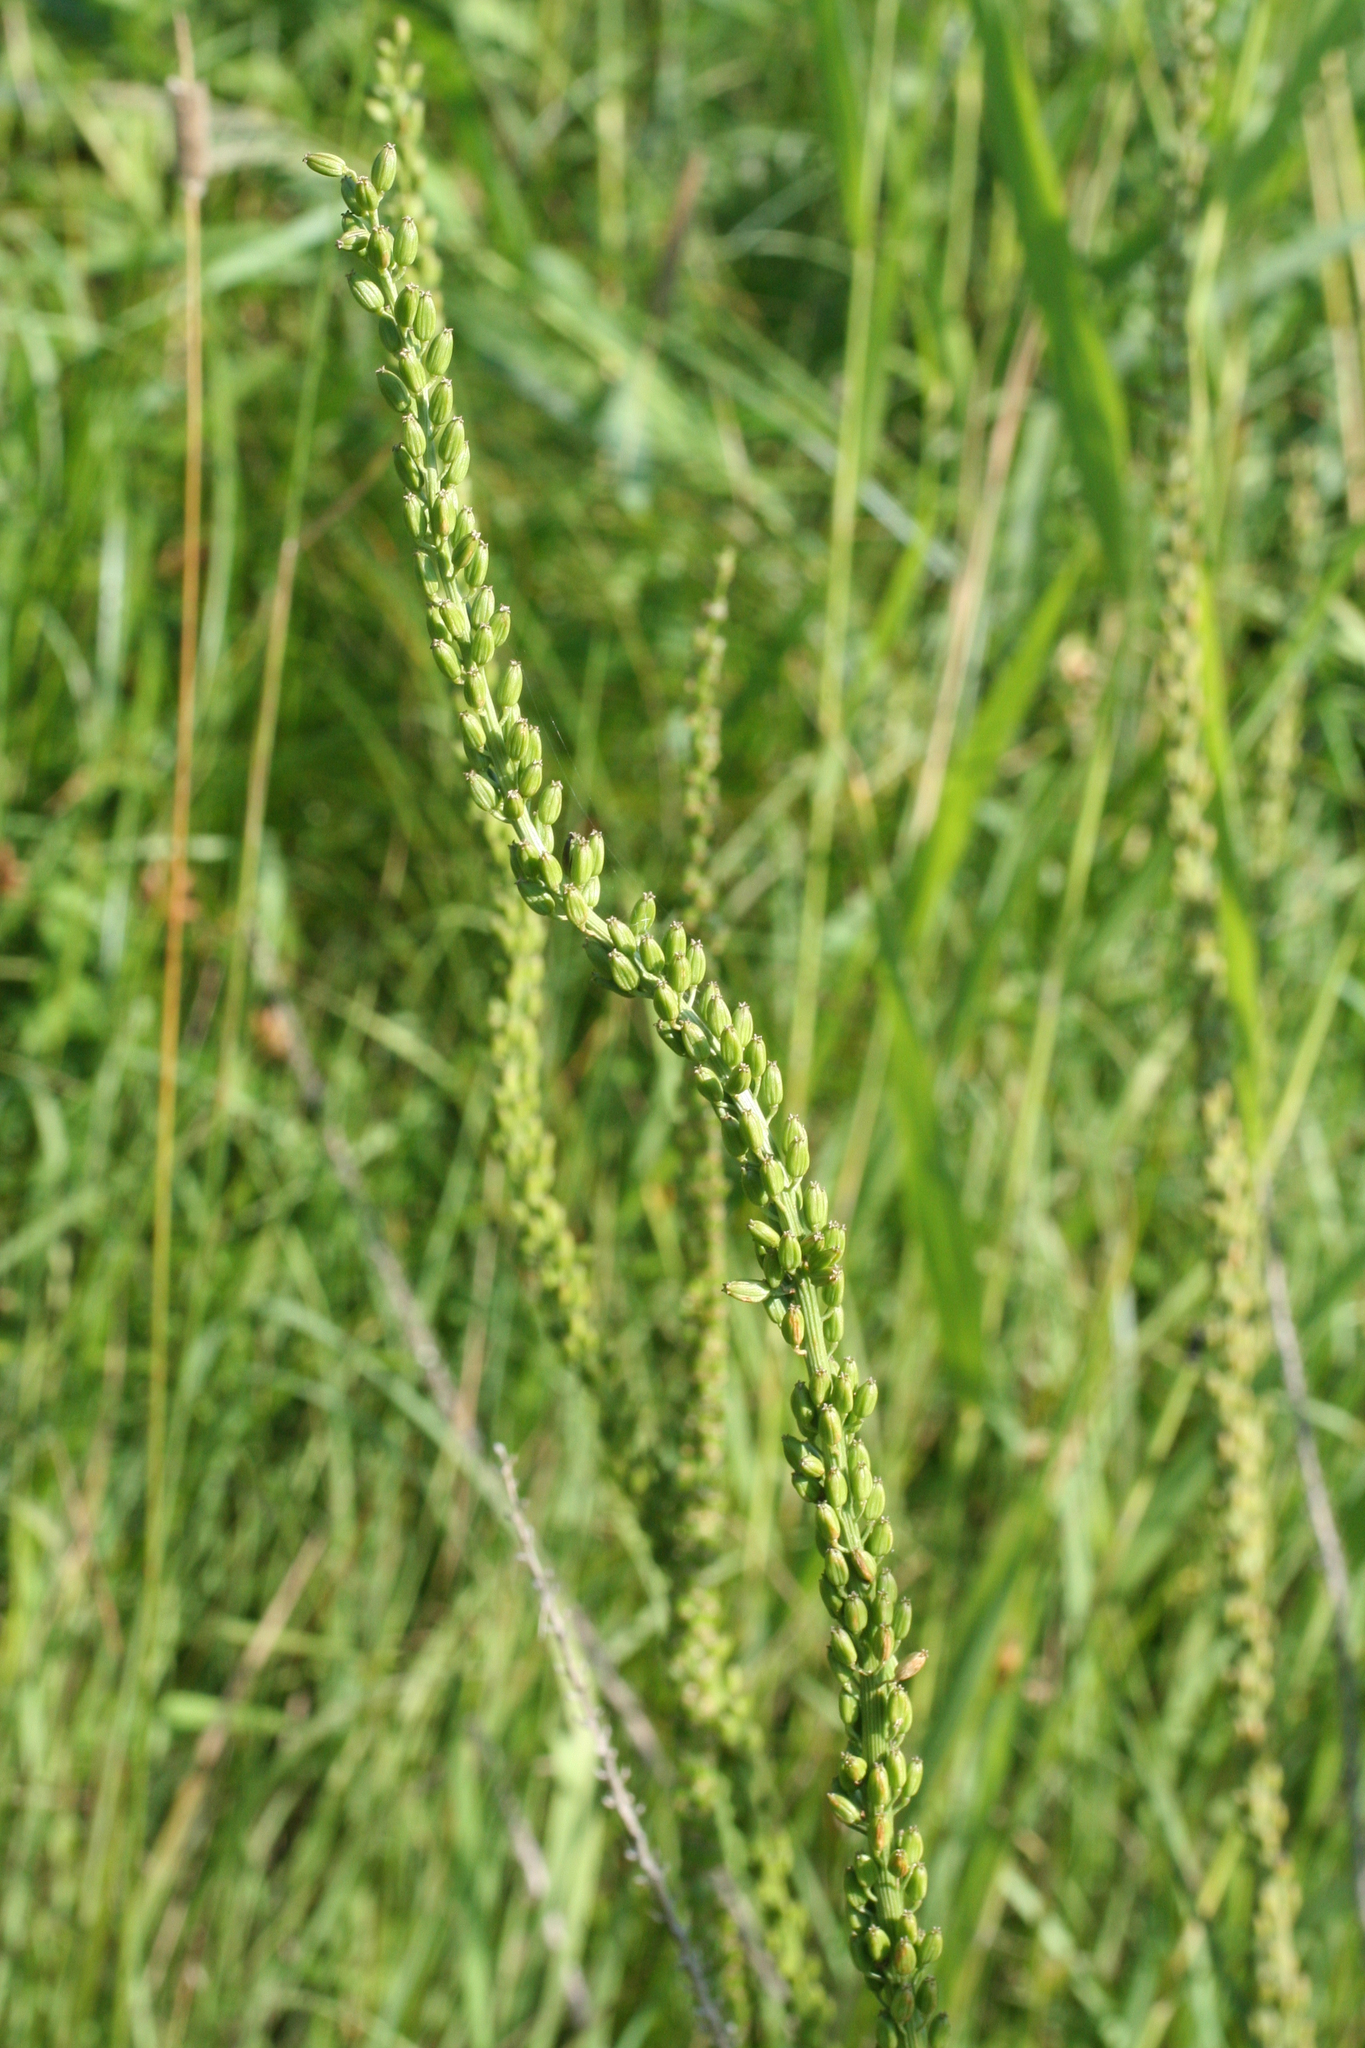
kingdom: Plantae
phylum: Tracheophyta
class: Liliopsida
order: Alismatales
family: Juncaginaceae
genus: Triglochin
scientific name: Triglochin maritima
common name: Sea arrowgrass
